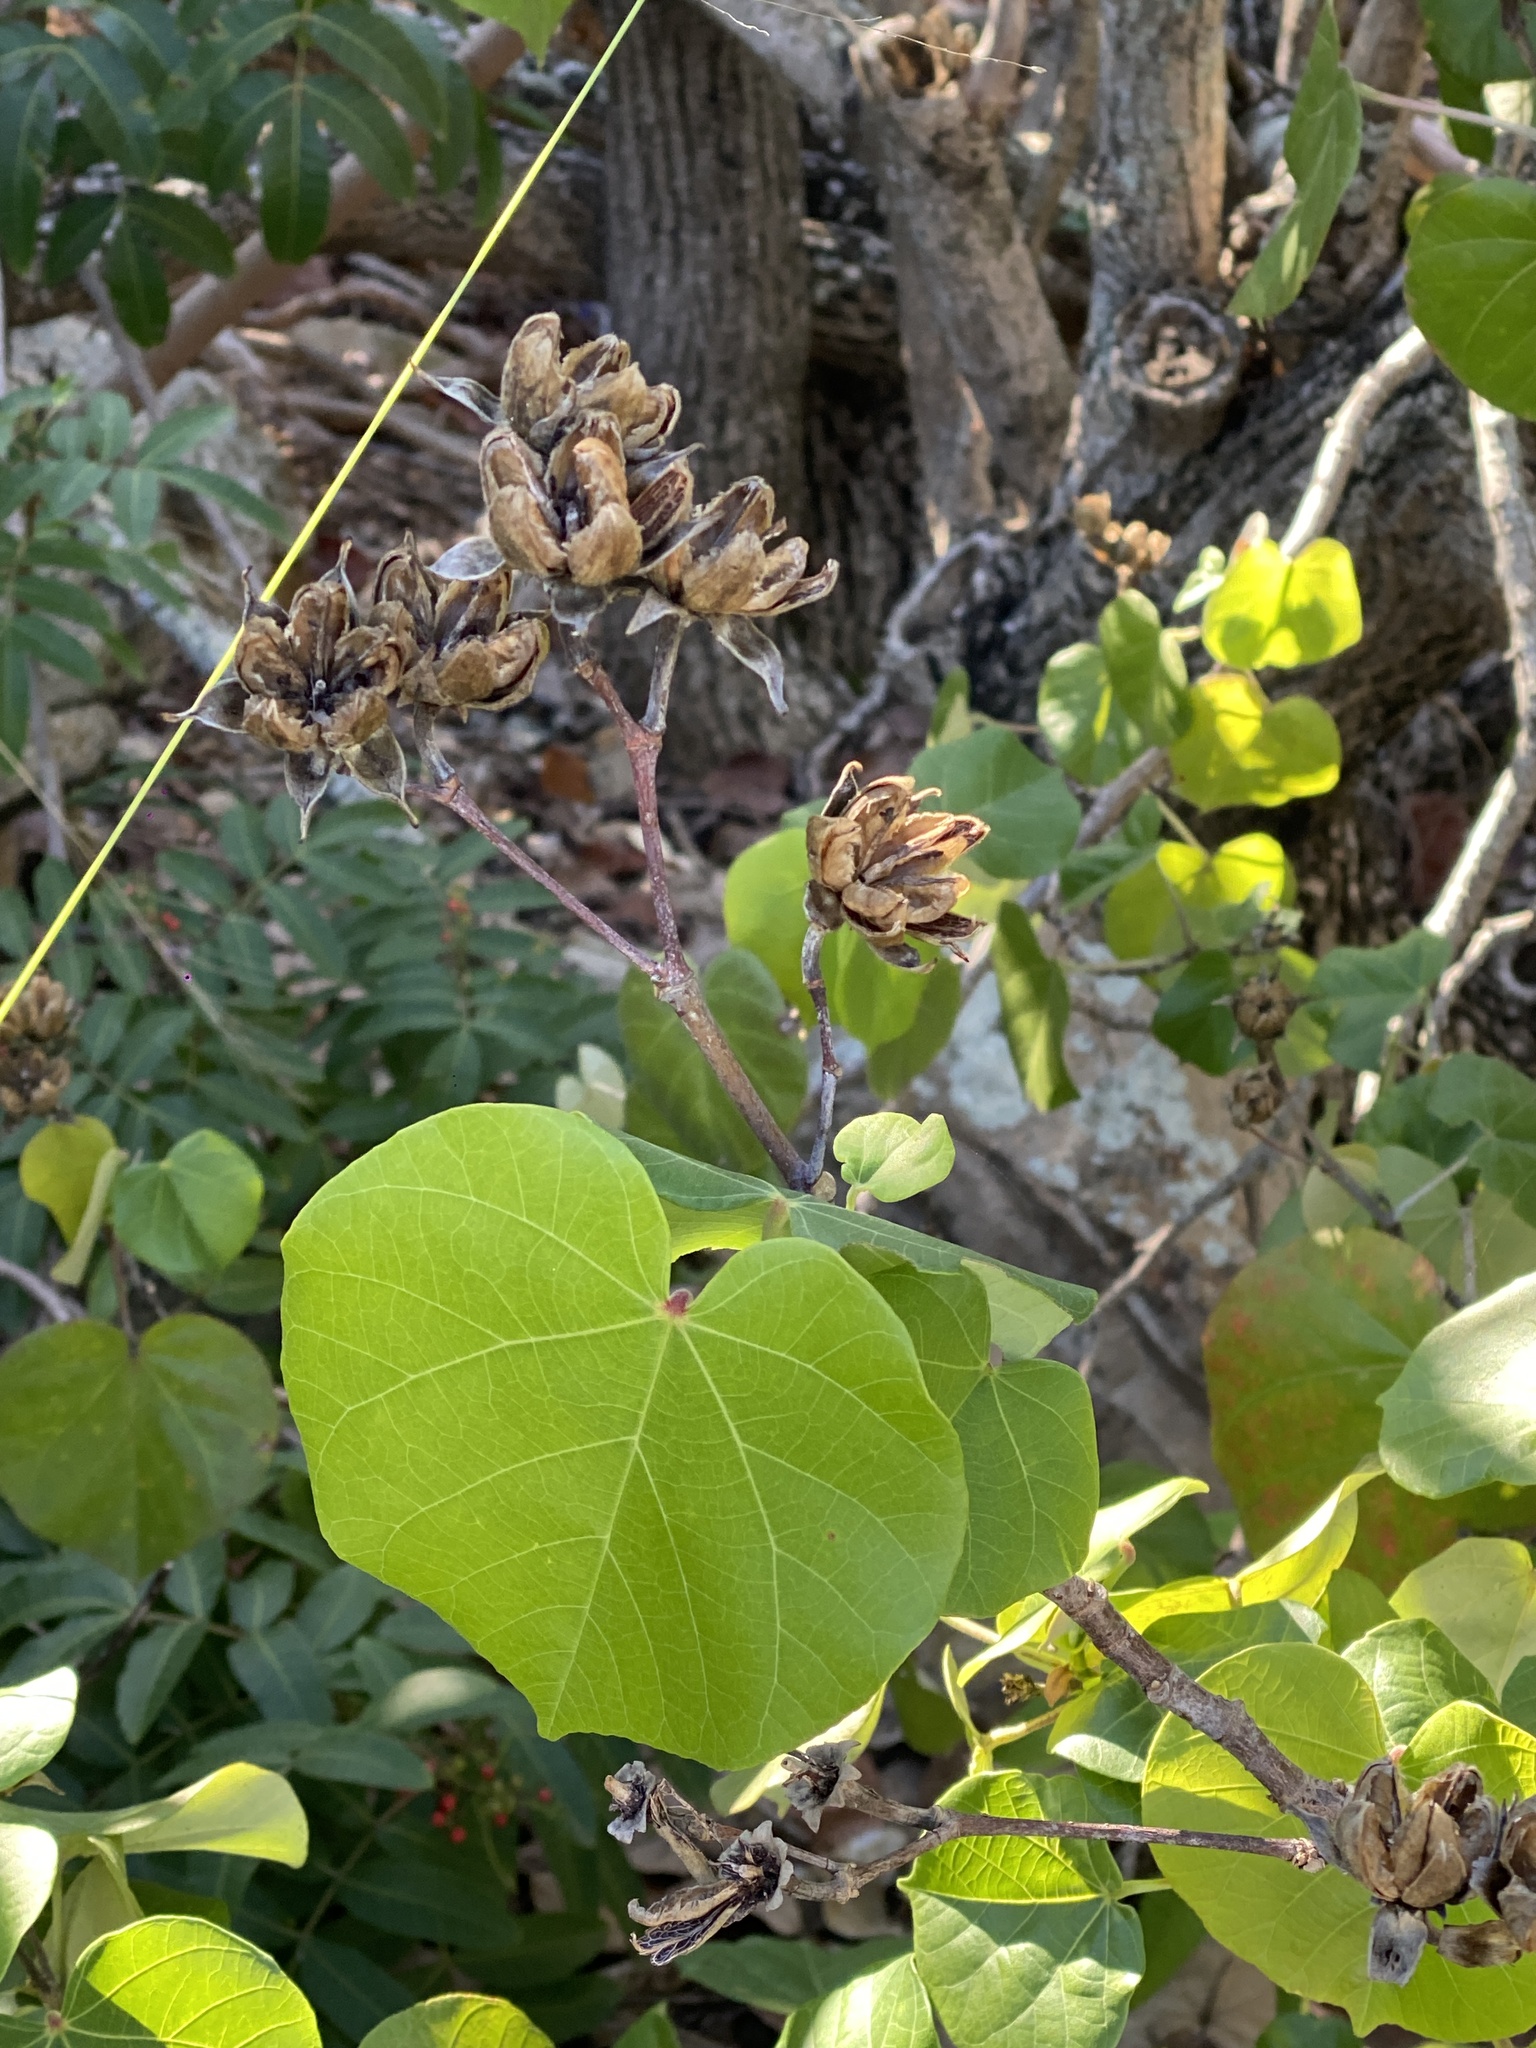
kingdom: Plantae
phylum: Tracheophyta
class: Magnoliopsida
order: Malvales
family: Malvaceae
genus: Talipariti
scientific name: Talipariti tiliaceum
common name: Sea hibiscus
